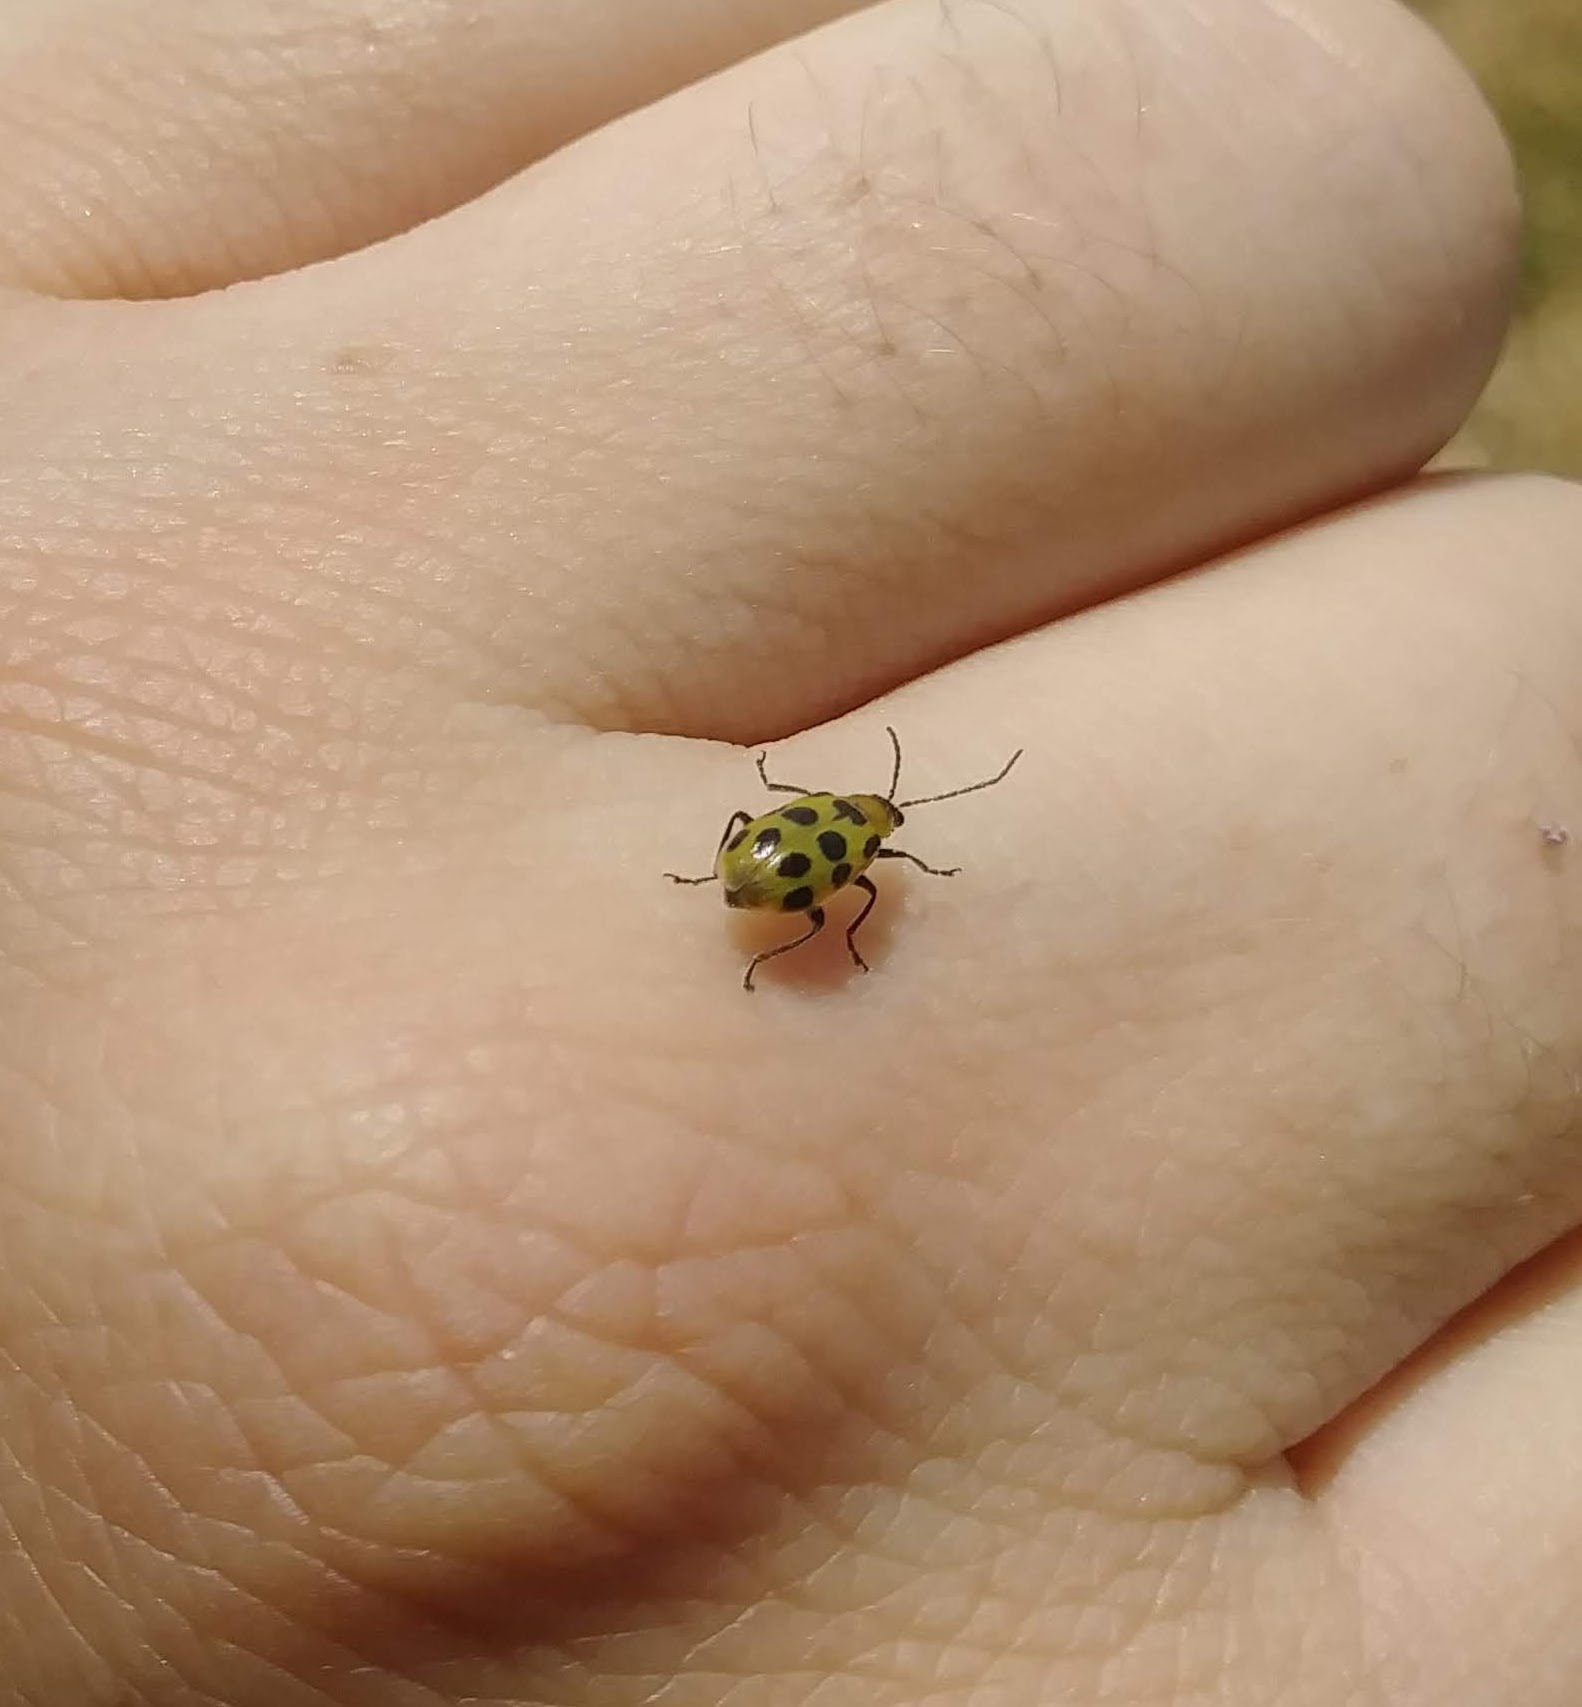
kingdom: Animalia
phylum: Arthropoda
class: Insecta
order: Coleoptera
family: Chrysomelidae
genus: Diabrotica
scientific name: Diabrotica undecimpunctata
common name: Spotted cucumber beetle
